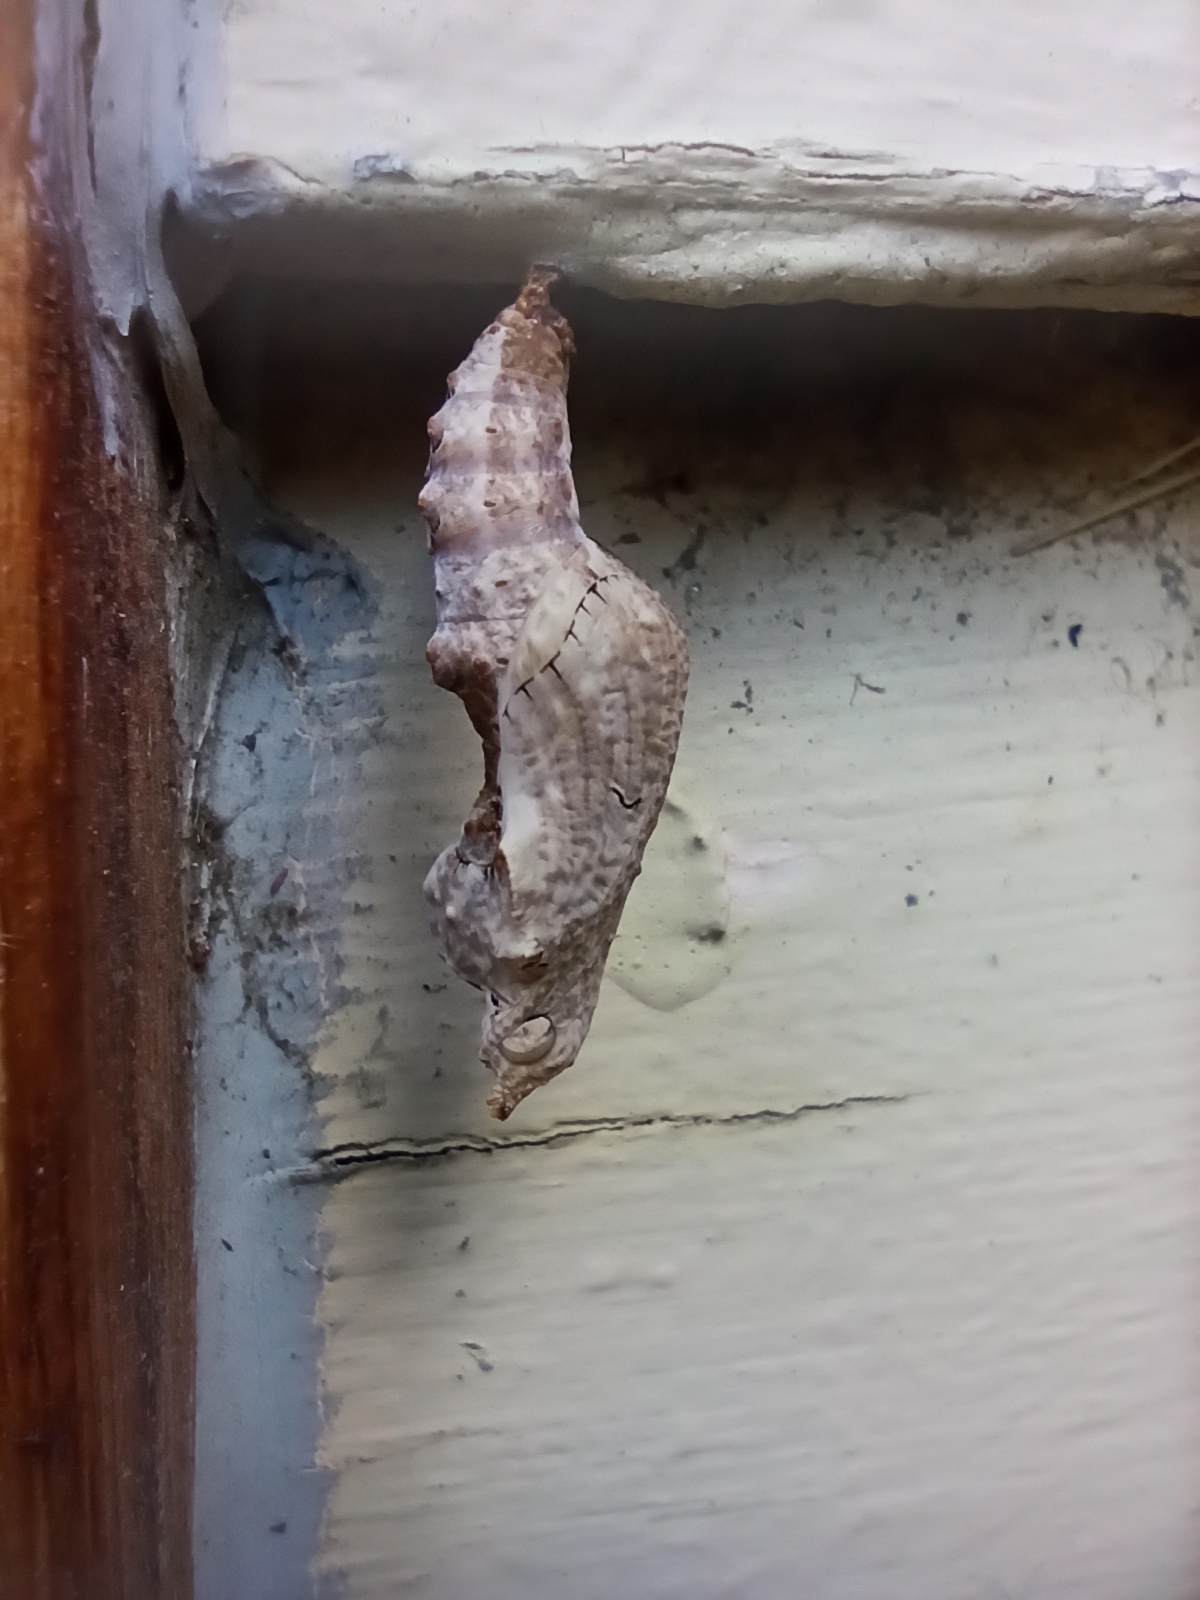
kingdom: Animalia
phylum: Arthropoda
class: Insecta
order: Lepidoptera
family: Nymphalidae
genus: Dione
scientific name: Dione vanillae
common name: Gulf fritillary
